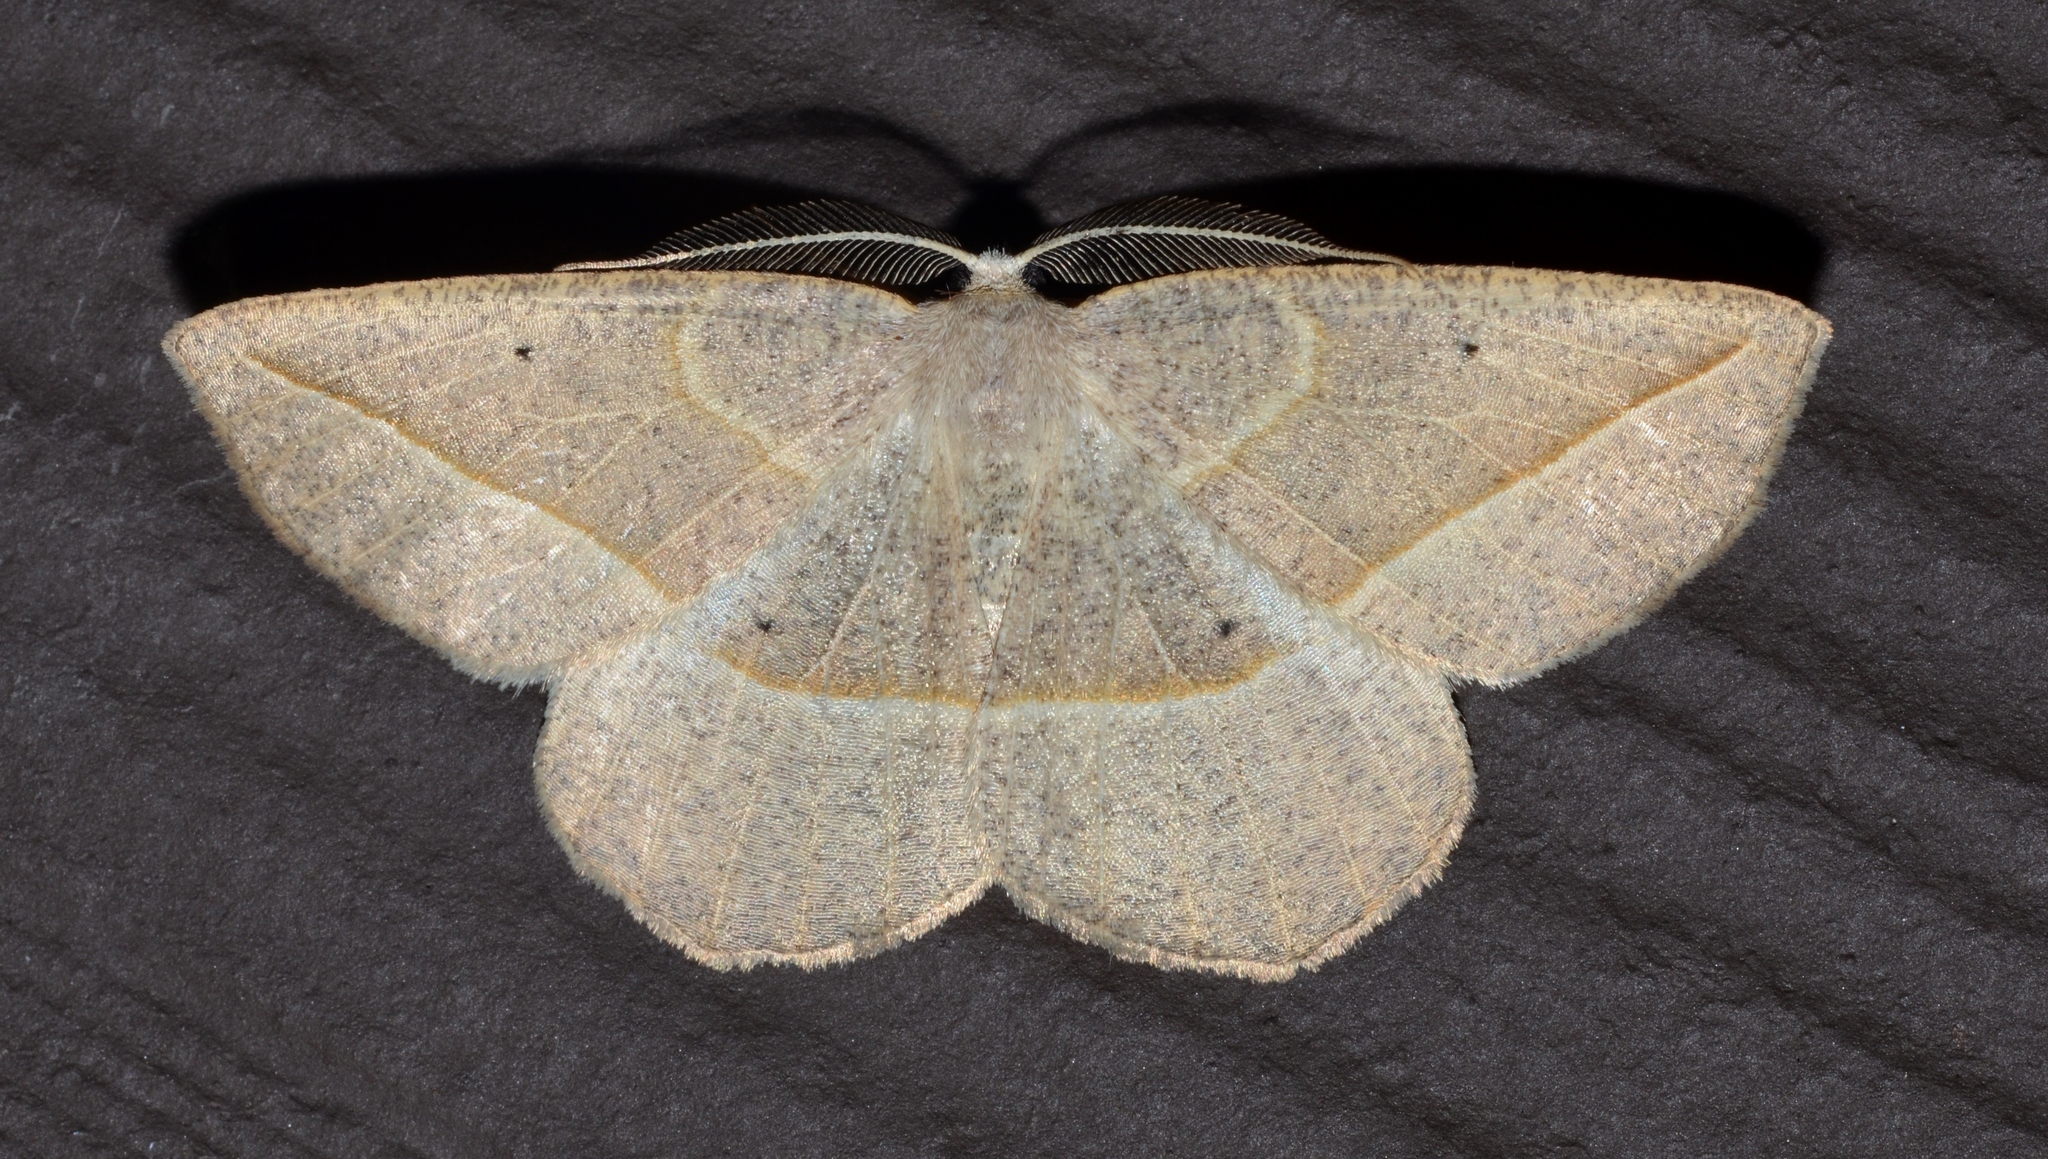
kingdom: Animalia
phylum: Arthropoda
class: Insecta
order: Lepidoptera
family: Geometridae
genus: Eusarca
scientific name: Eusarca confusaria
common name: Confused eusarca
